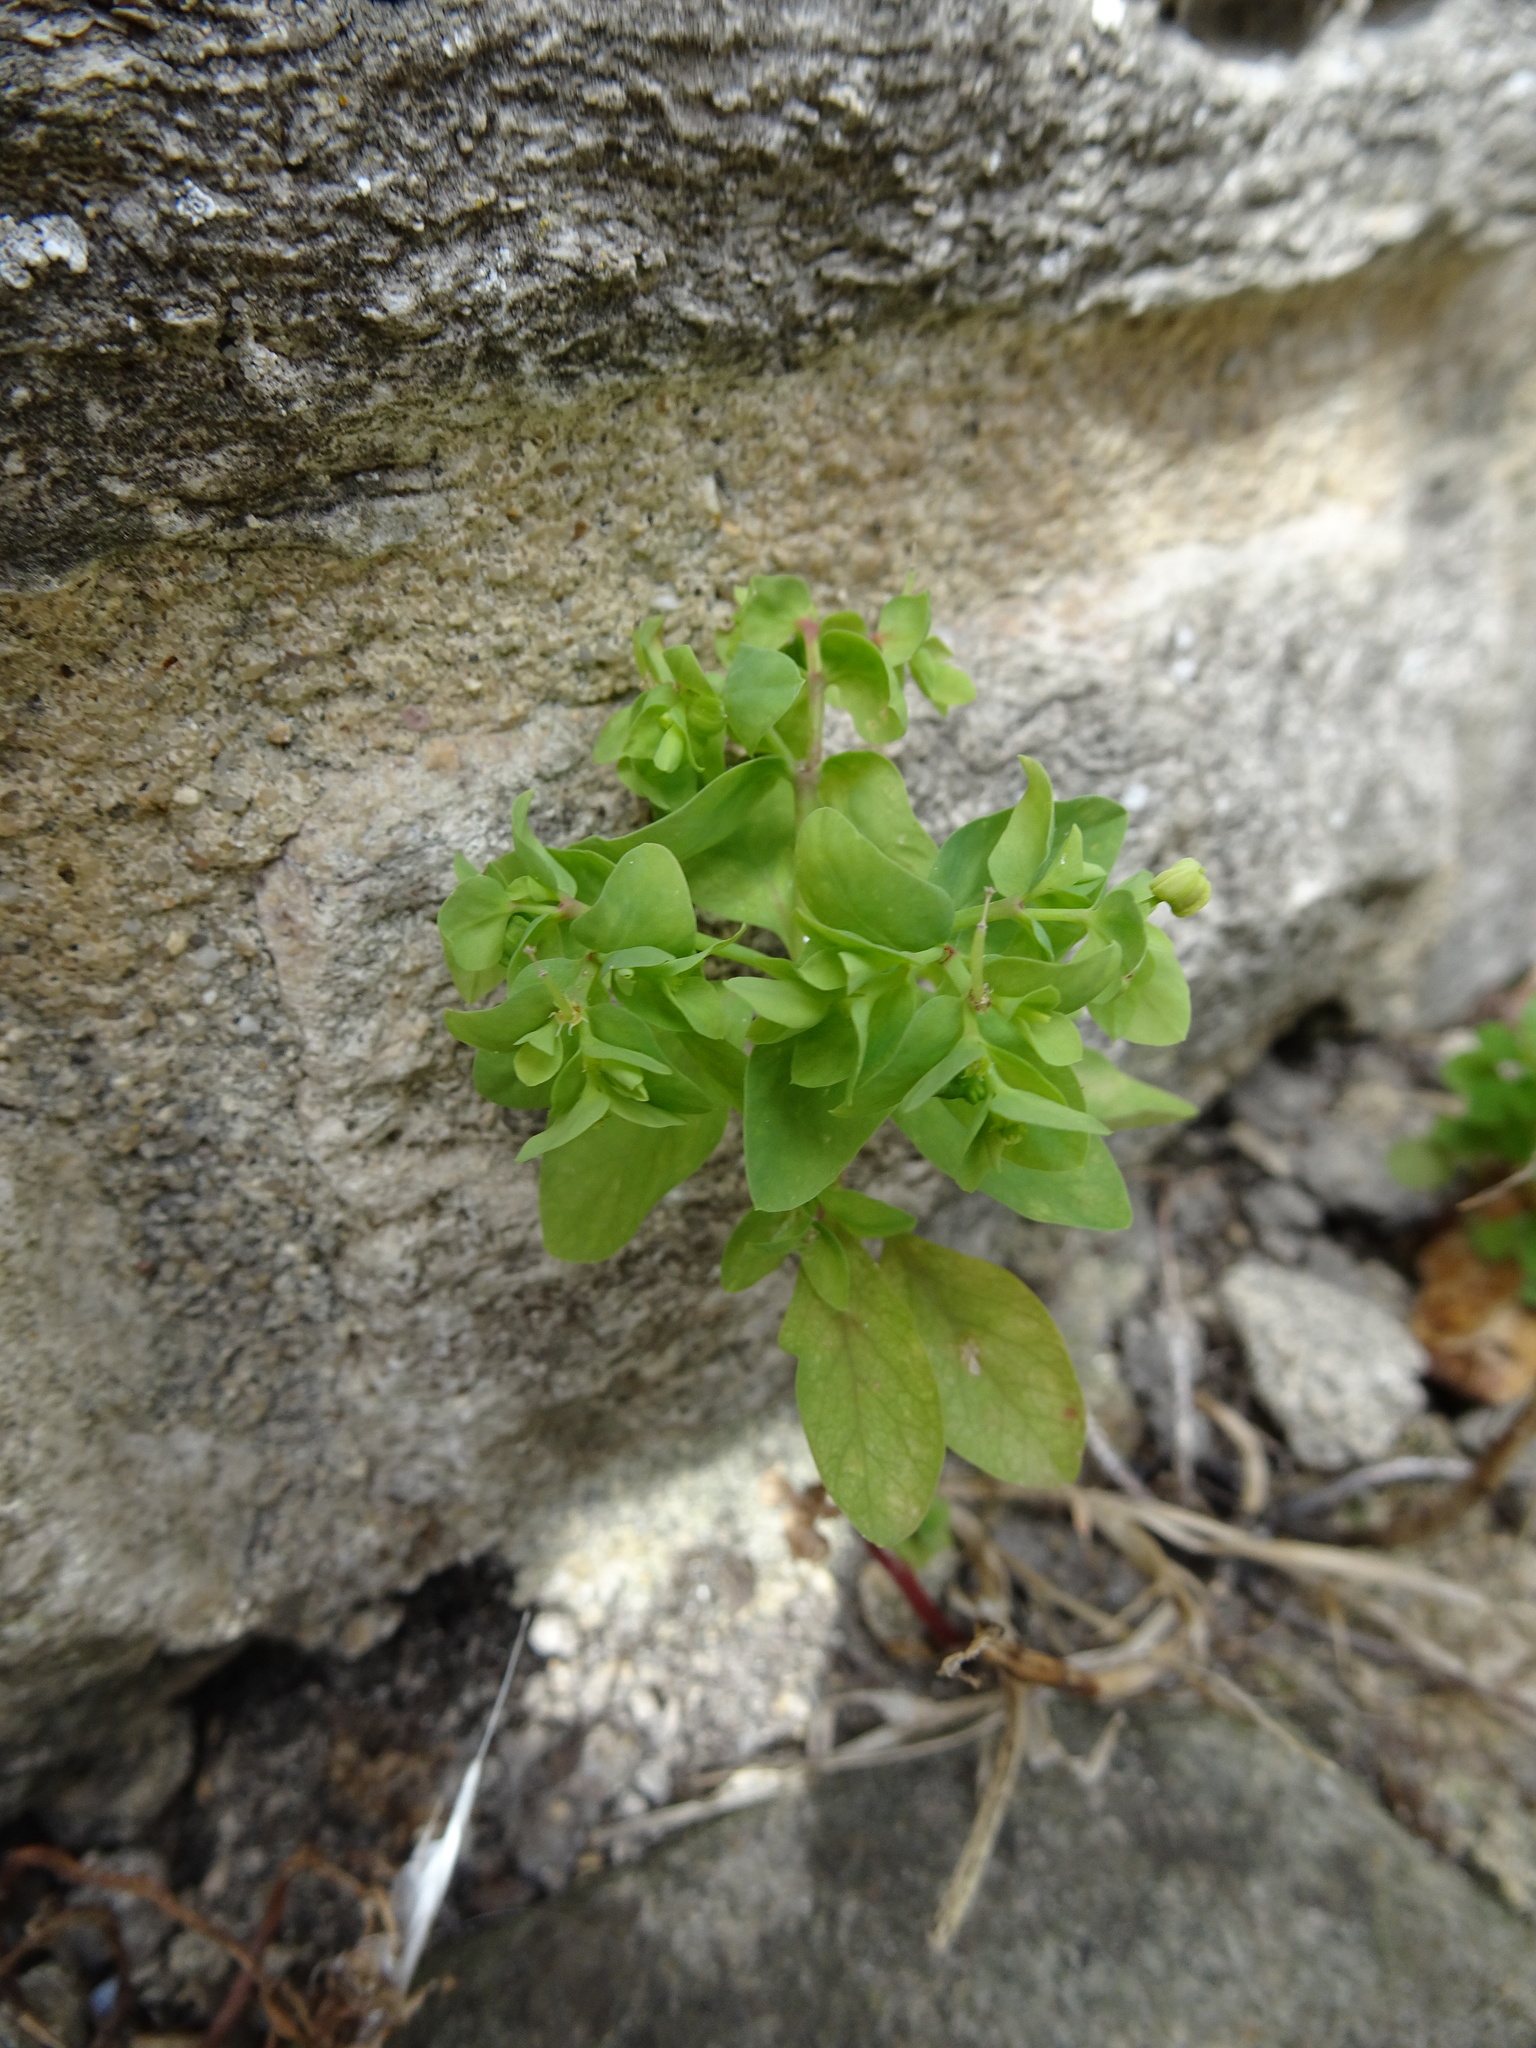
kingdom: Plantae
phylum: Tracheophyta
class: Magnoliopsida
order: Malpighiales
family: Euphorbiaceae
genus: Euphorbia
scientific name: Euphorbia peplus
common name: Petty spurge
